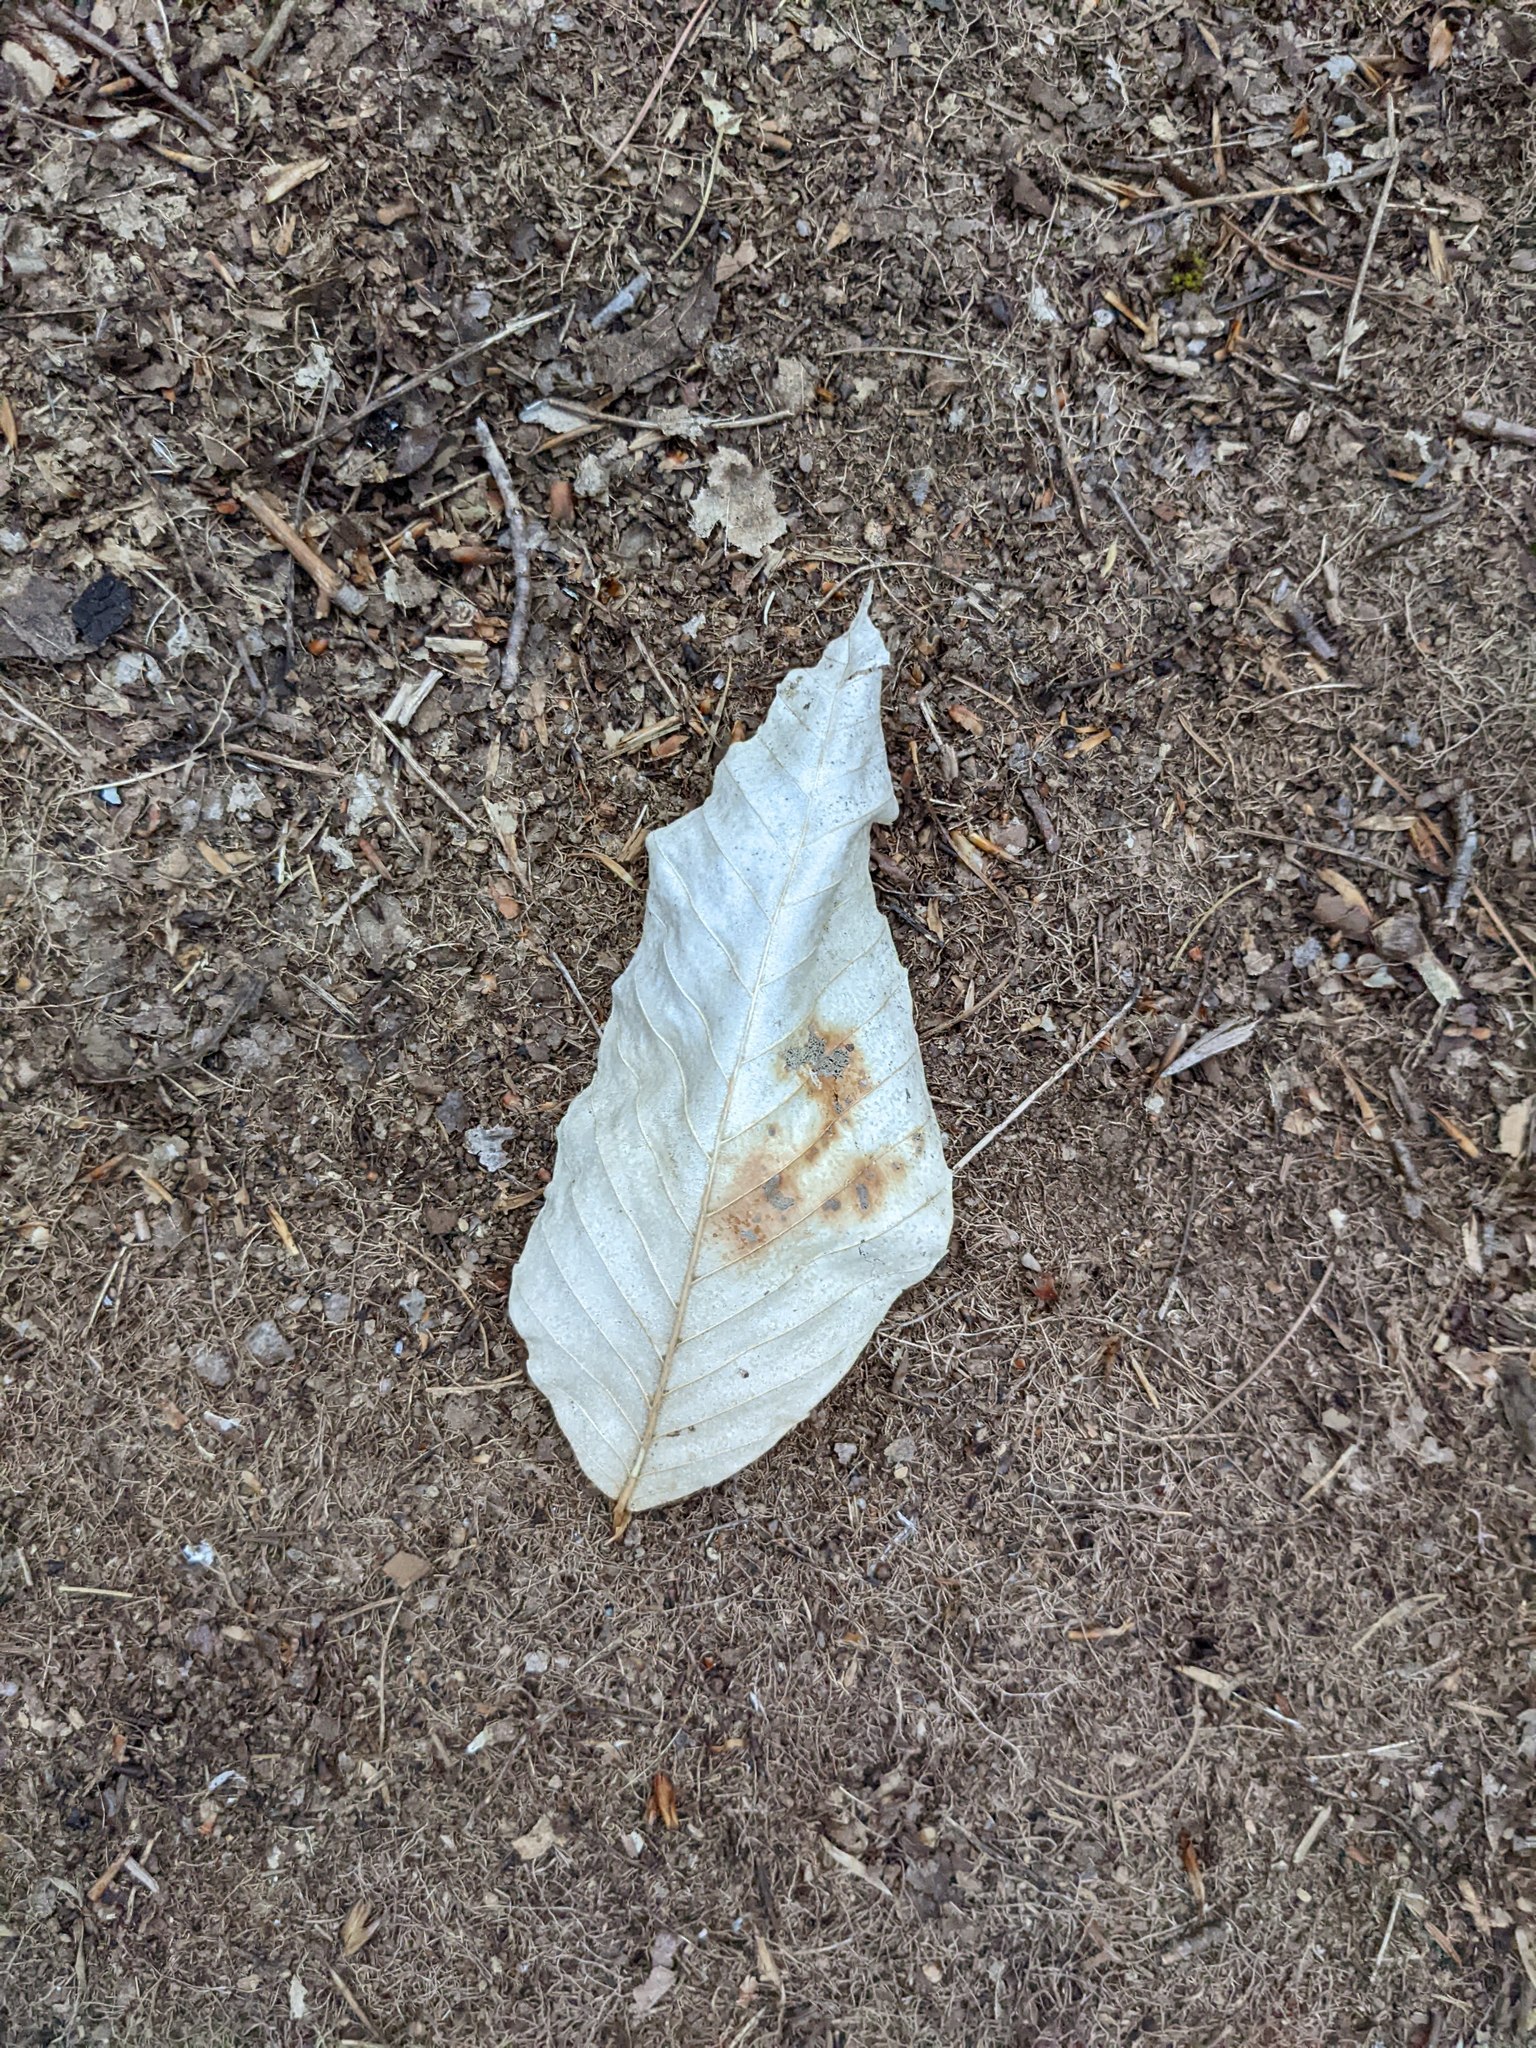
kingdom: Plantae
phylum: Tracheophyta
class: Magnoliopsida
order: Fagales
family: Fagaceae
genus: Fagus
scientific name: Fagus grandifolia
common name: American beech
